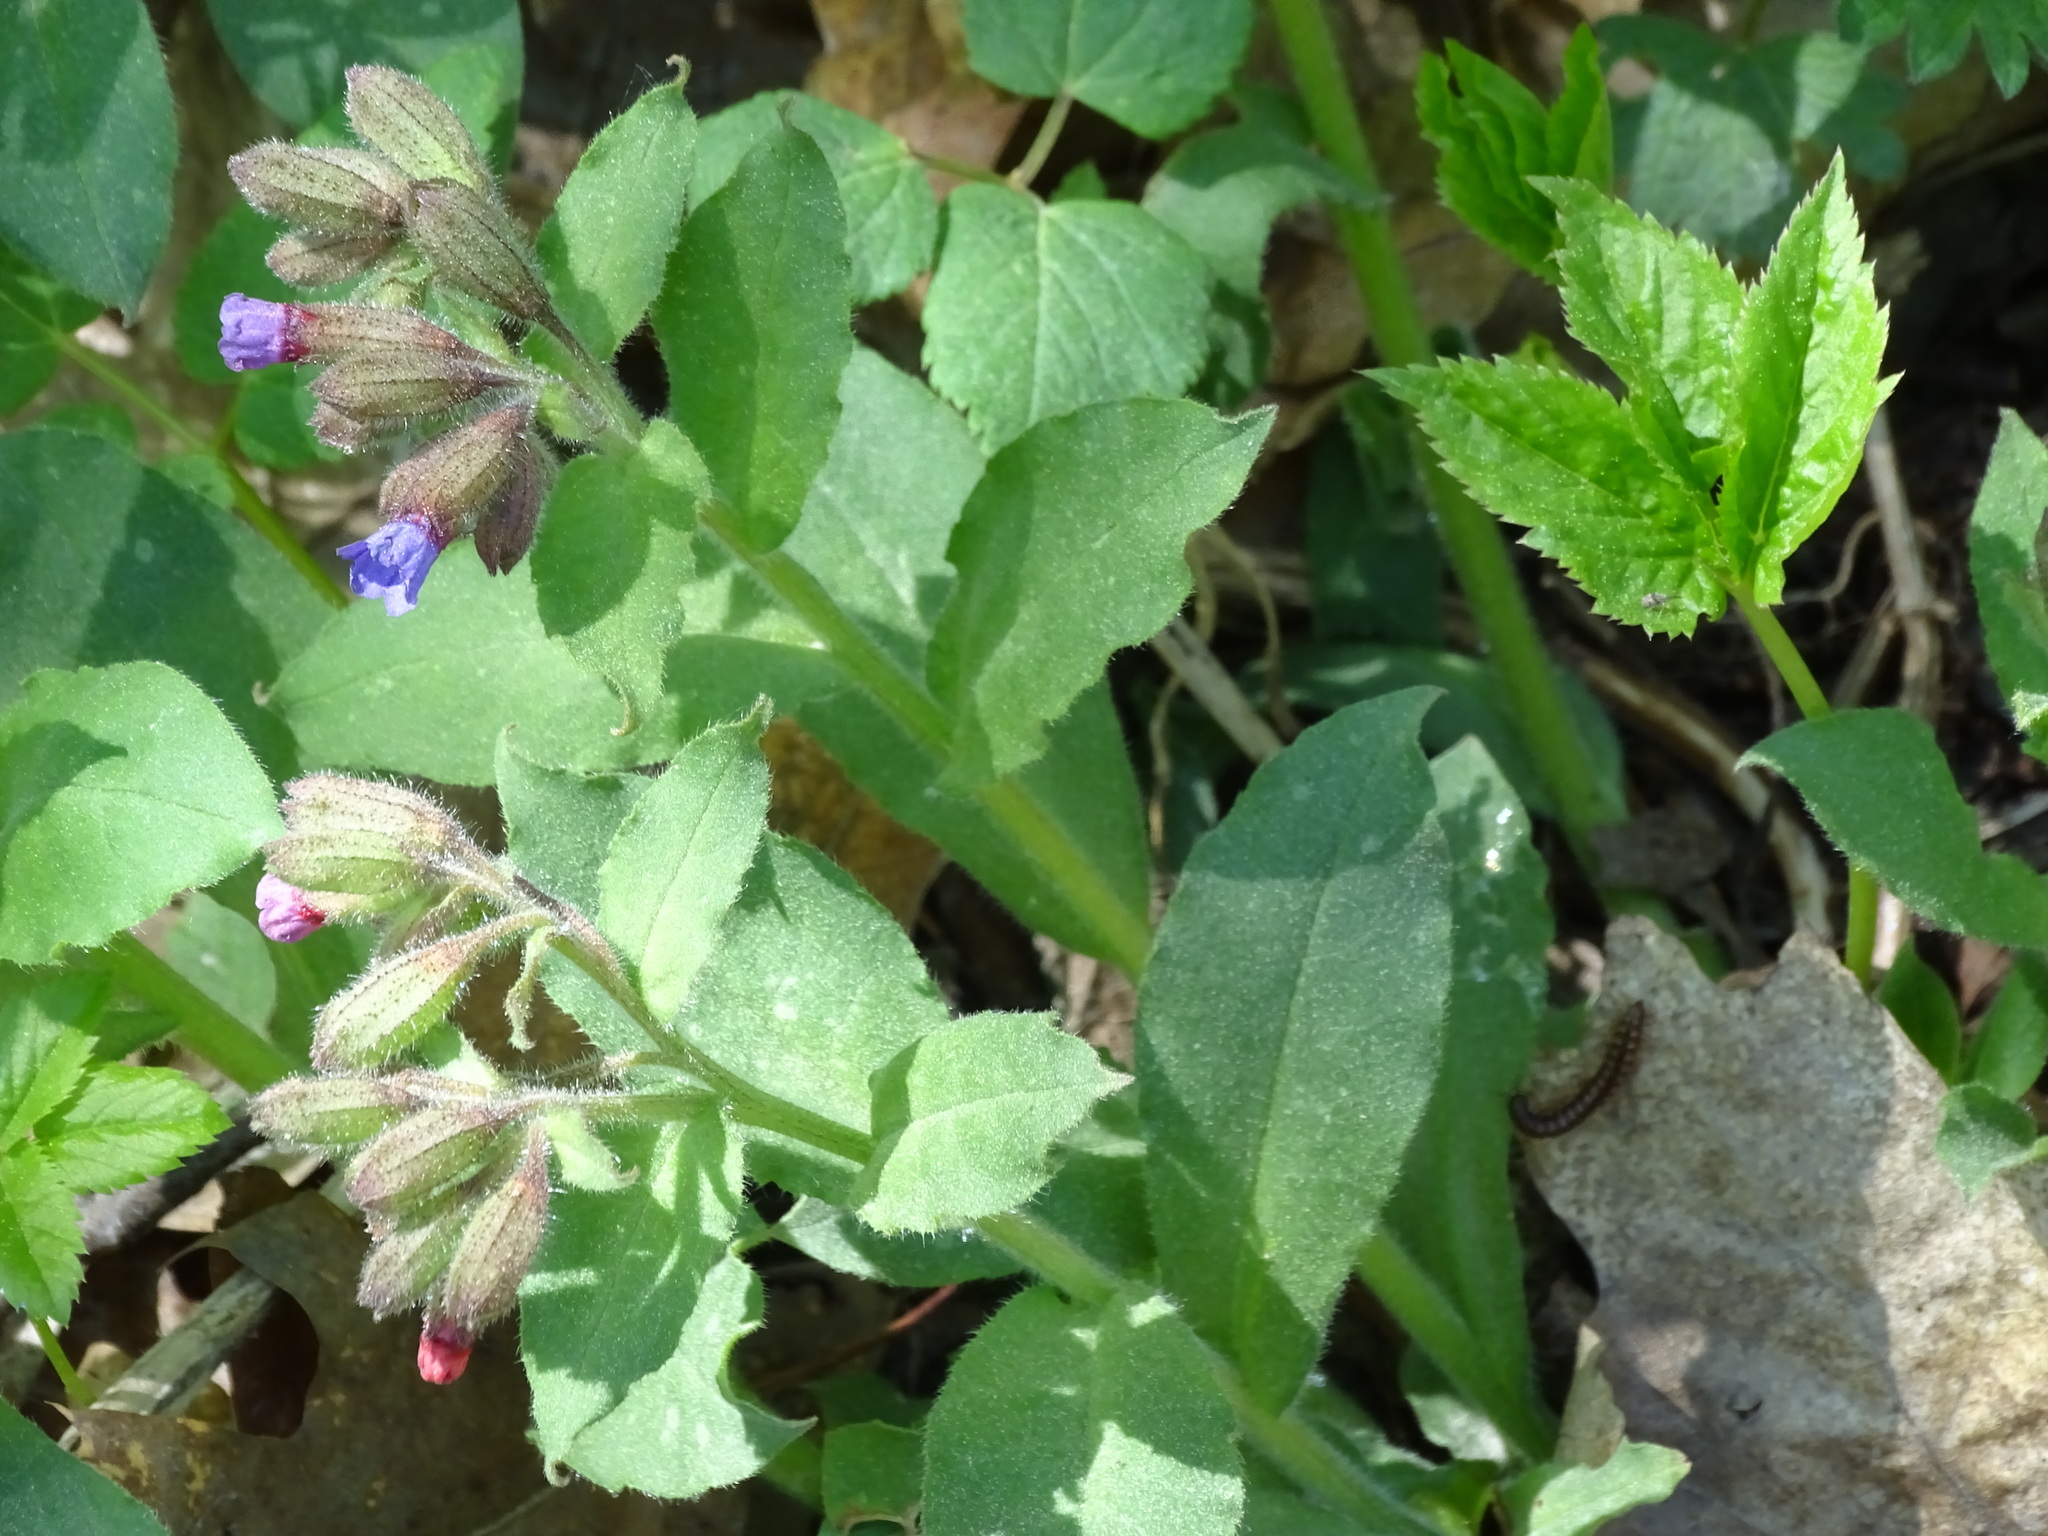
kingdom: Plantae
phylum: Tracheophyta
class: Magnoliopsida
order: Boraginales
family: Boraginaceae
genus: Pulmonaria
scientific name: Pulmonaria officinalis
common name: Lungwort
